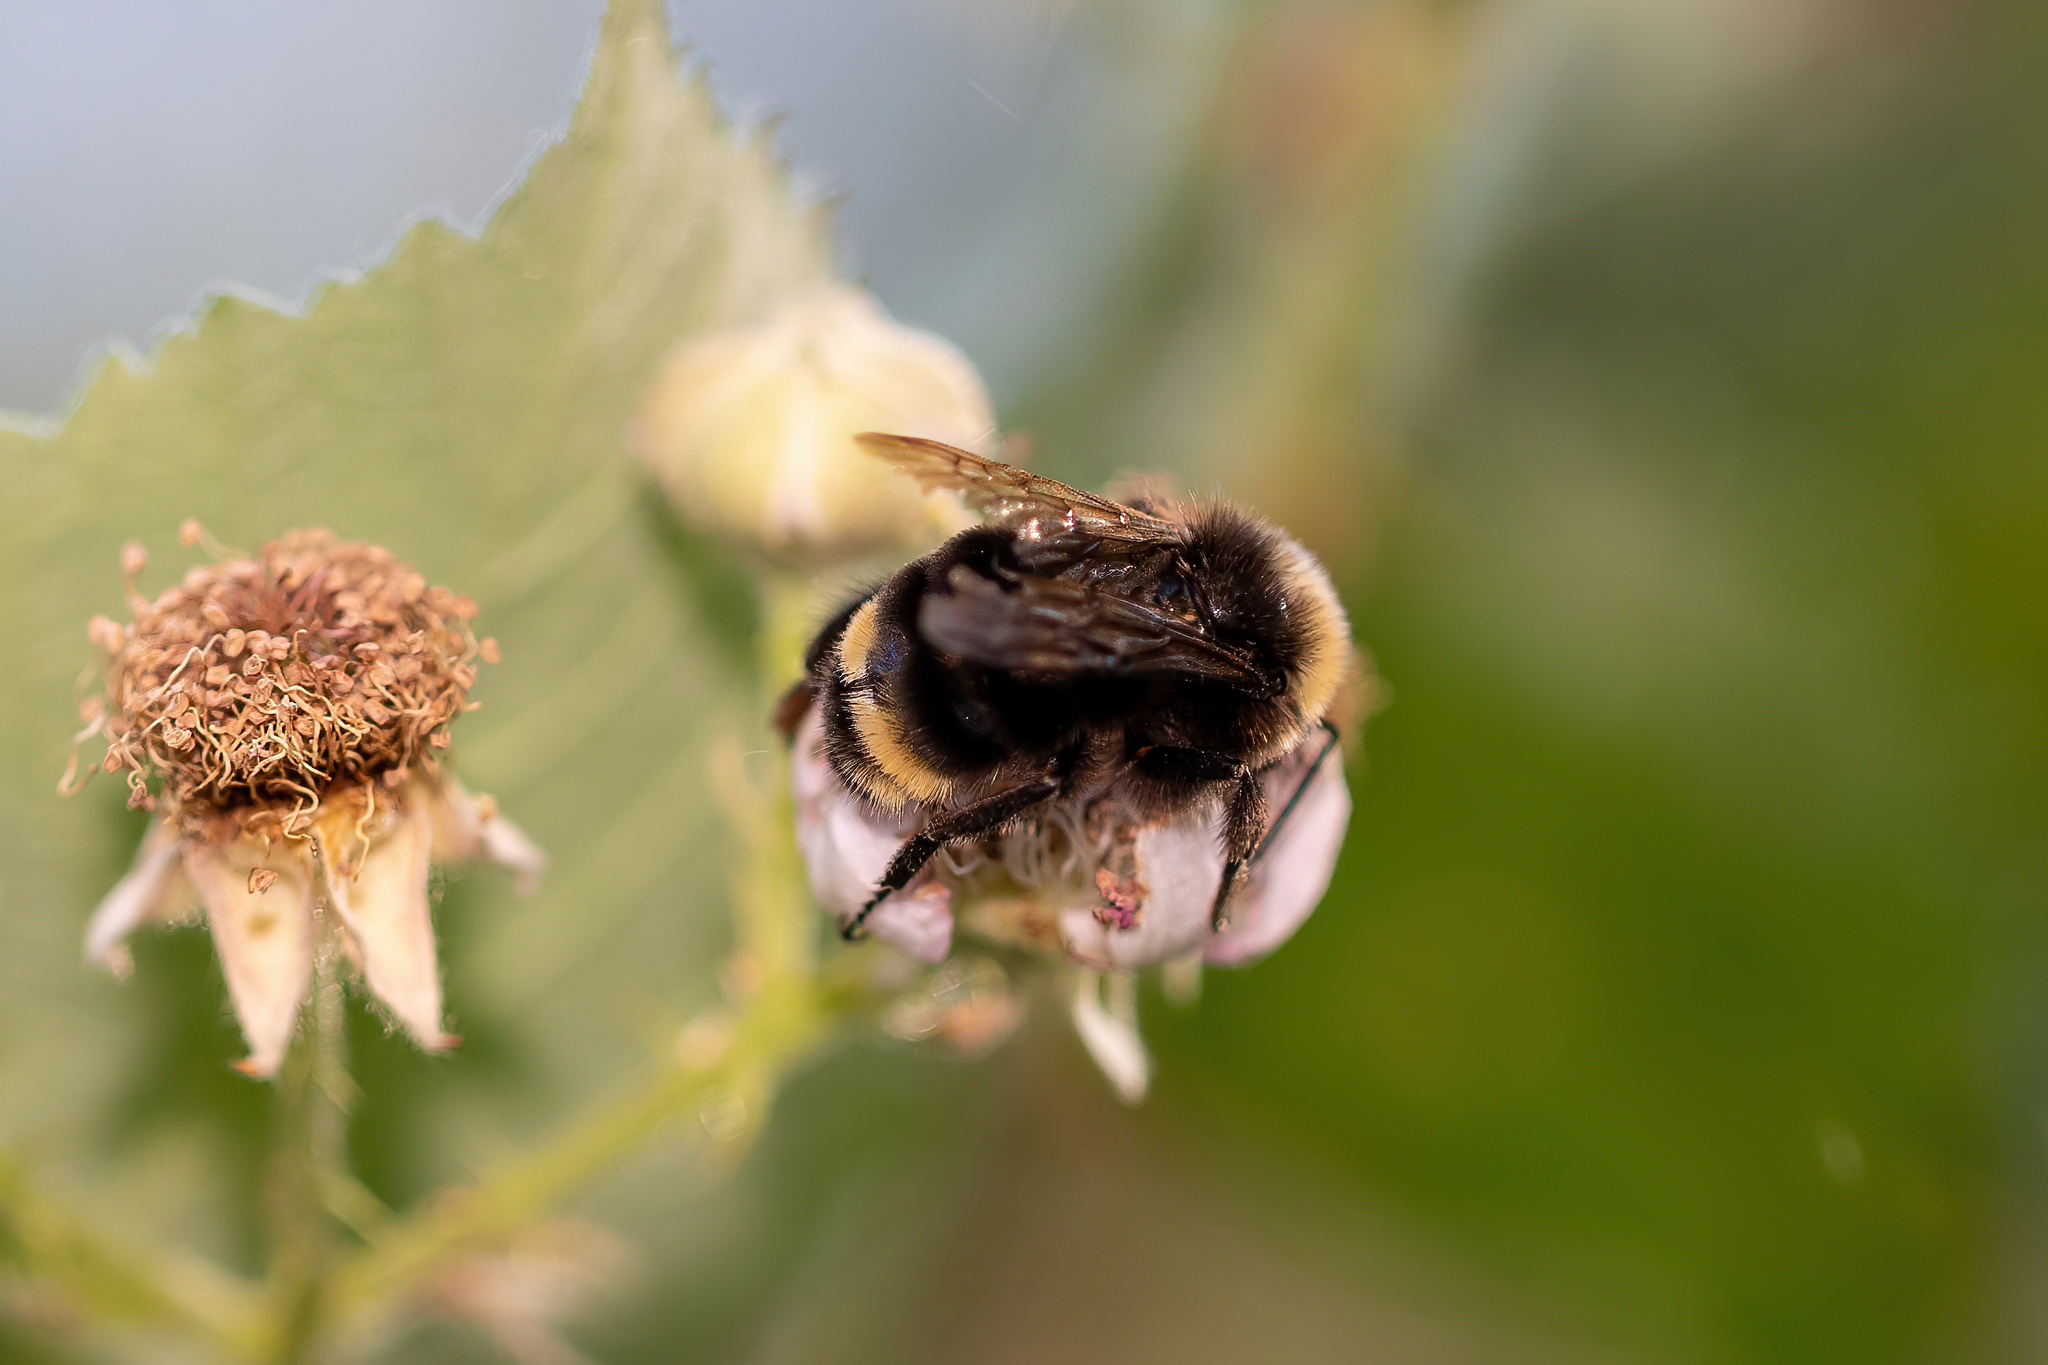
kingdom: Animalia
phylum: Arthropoda
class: Insecta
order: Hymenoptera
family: Apidae
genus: Bombus
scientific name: Bombus vosnesenskii
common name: Vosnesensky bumble bee
